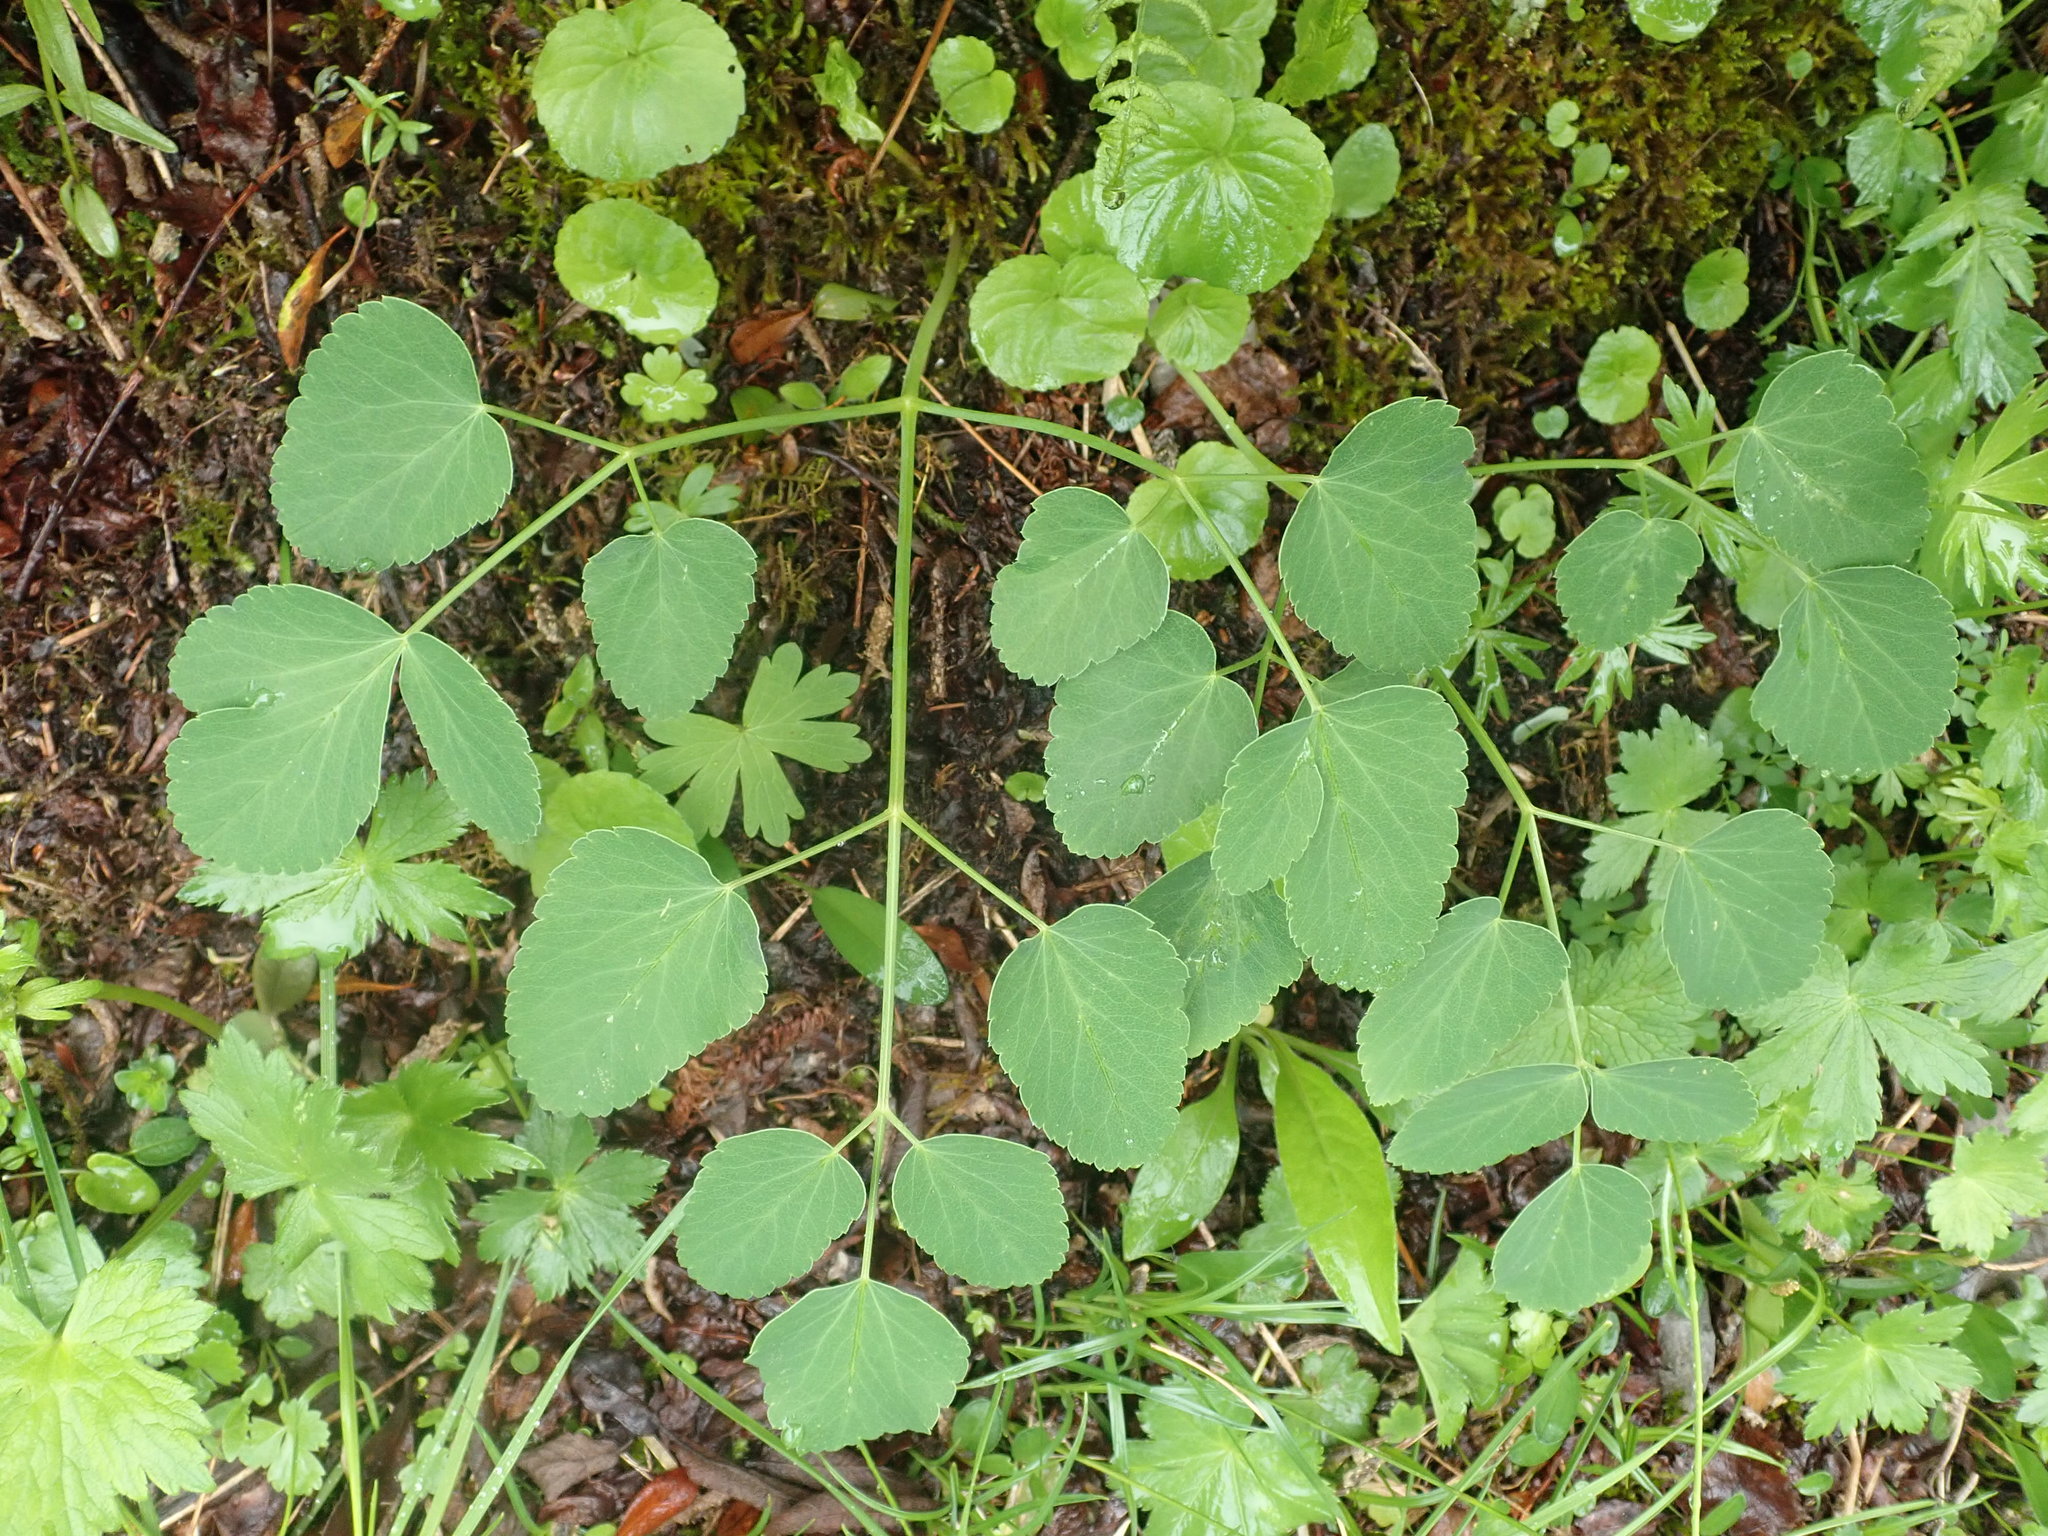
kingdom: Plantae
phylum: Tracheophyta
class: Magnoliopsida
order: Apiales
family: Apiaceae
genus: Laserpitium
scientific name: Laserpitium latifolium
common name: Broadleaf sermountain
